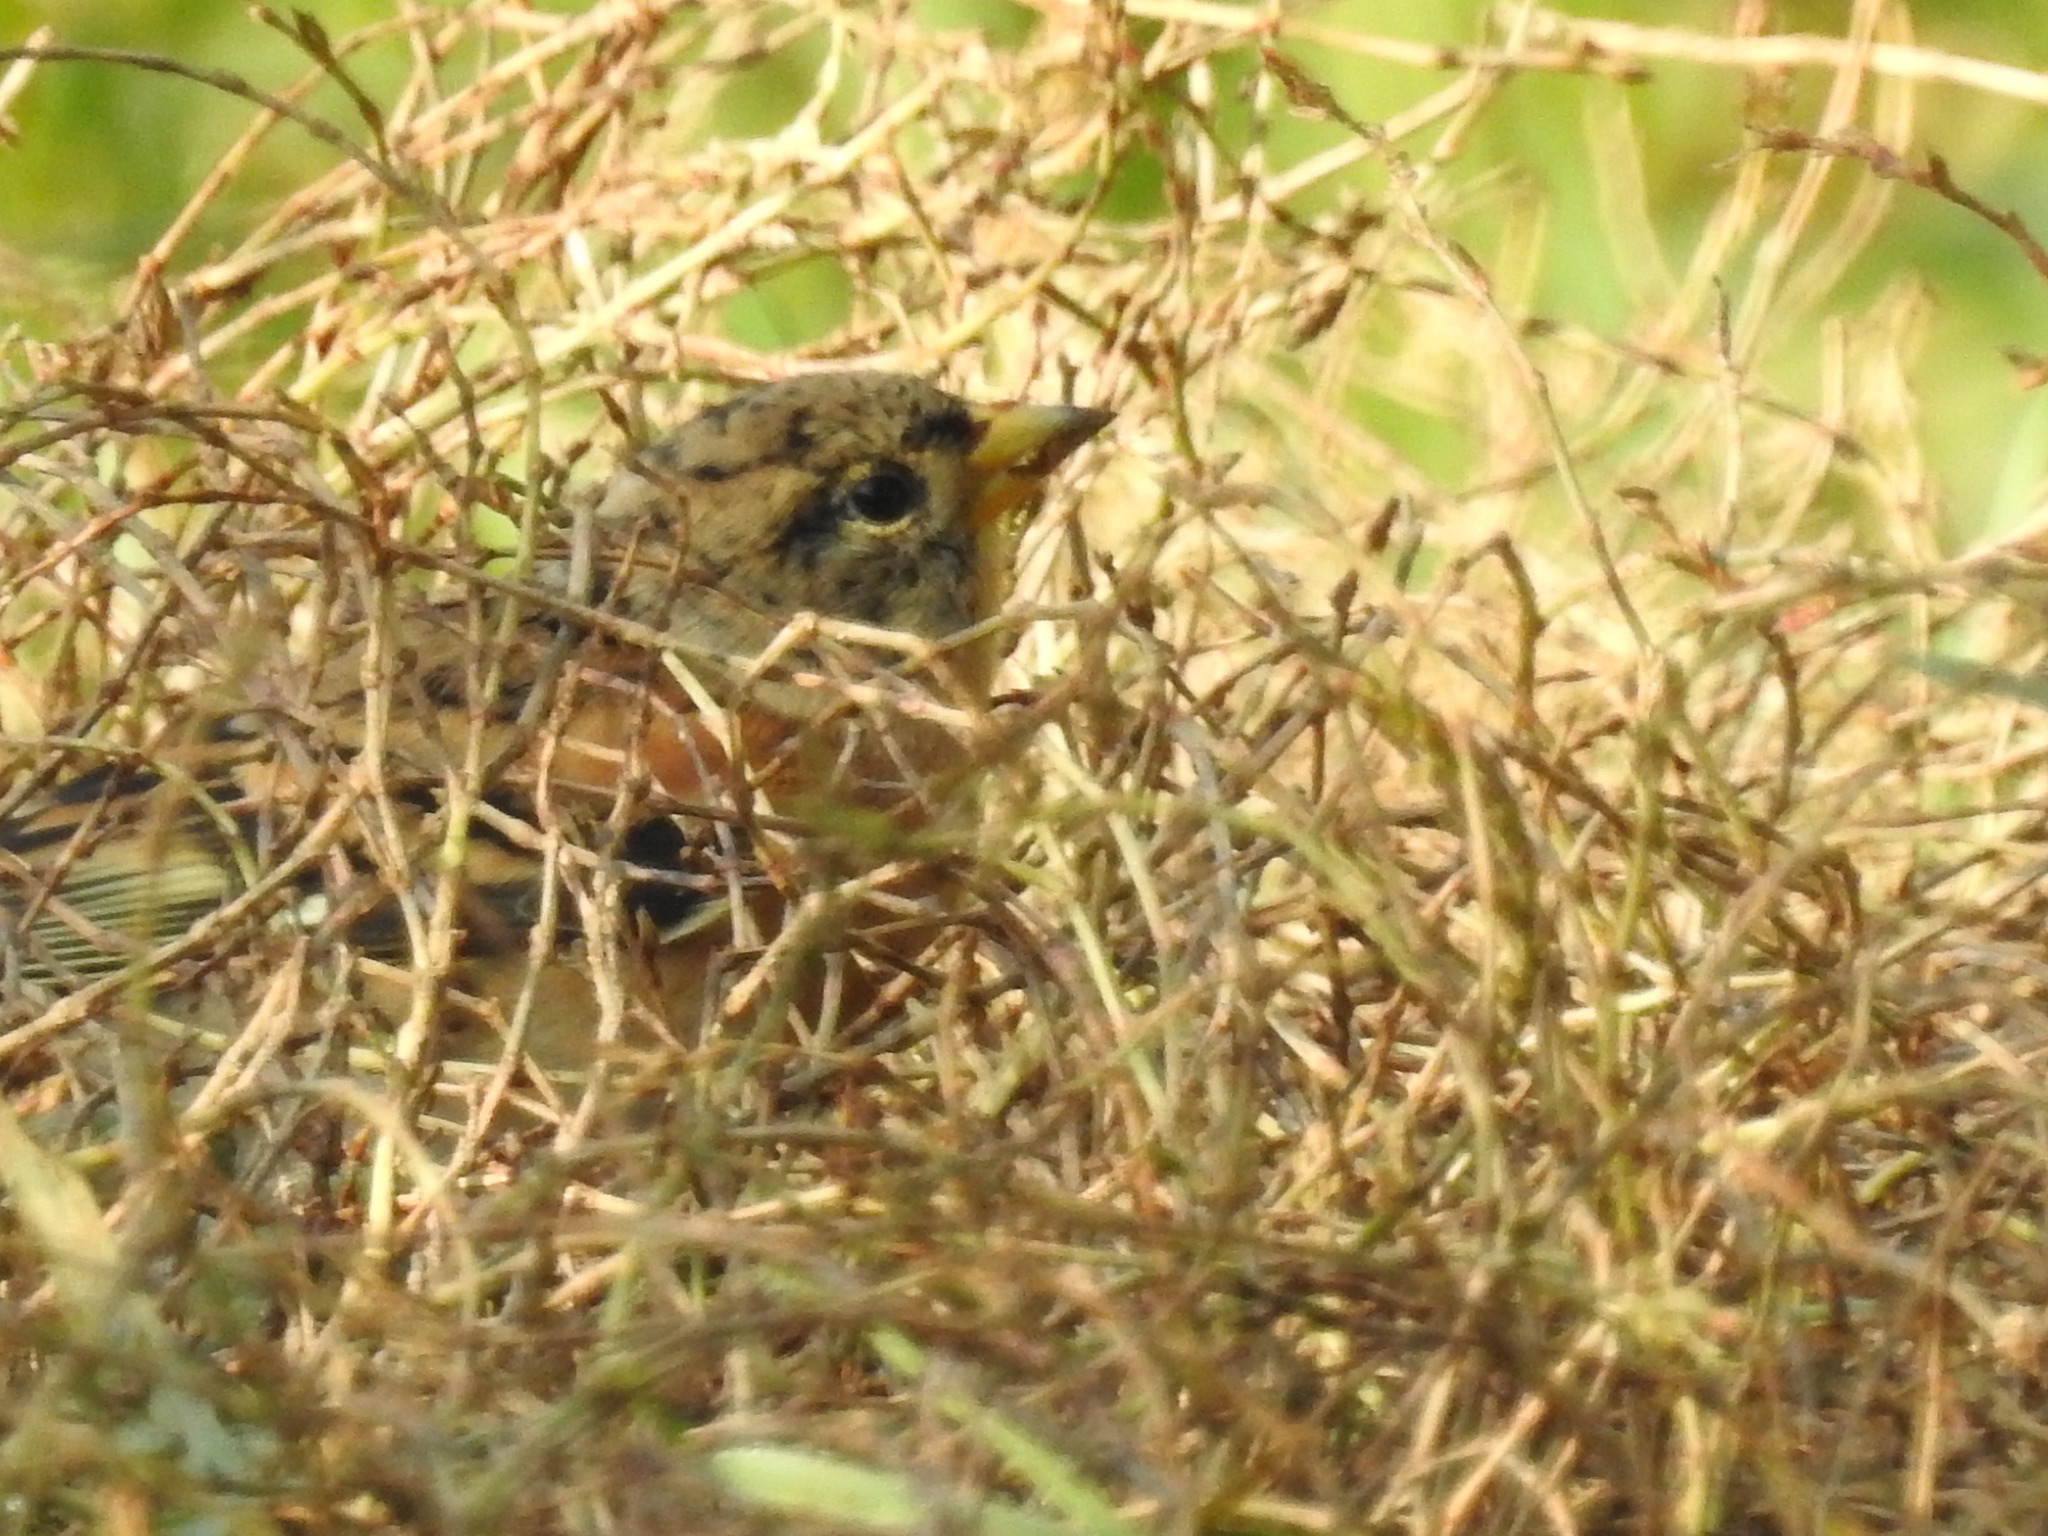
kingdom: Animalia
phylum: Chordata
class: Aves
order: Passeriformes
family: Fringillidae
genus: Fringilla
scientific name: Fringilla montifringilla
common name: Brambling
